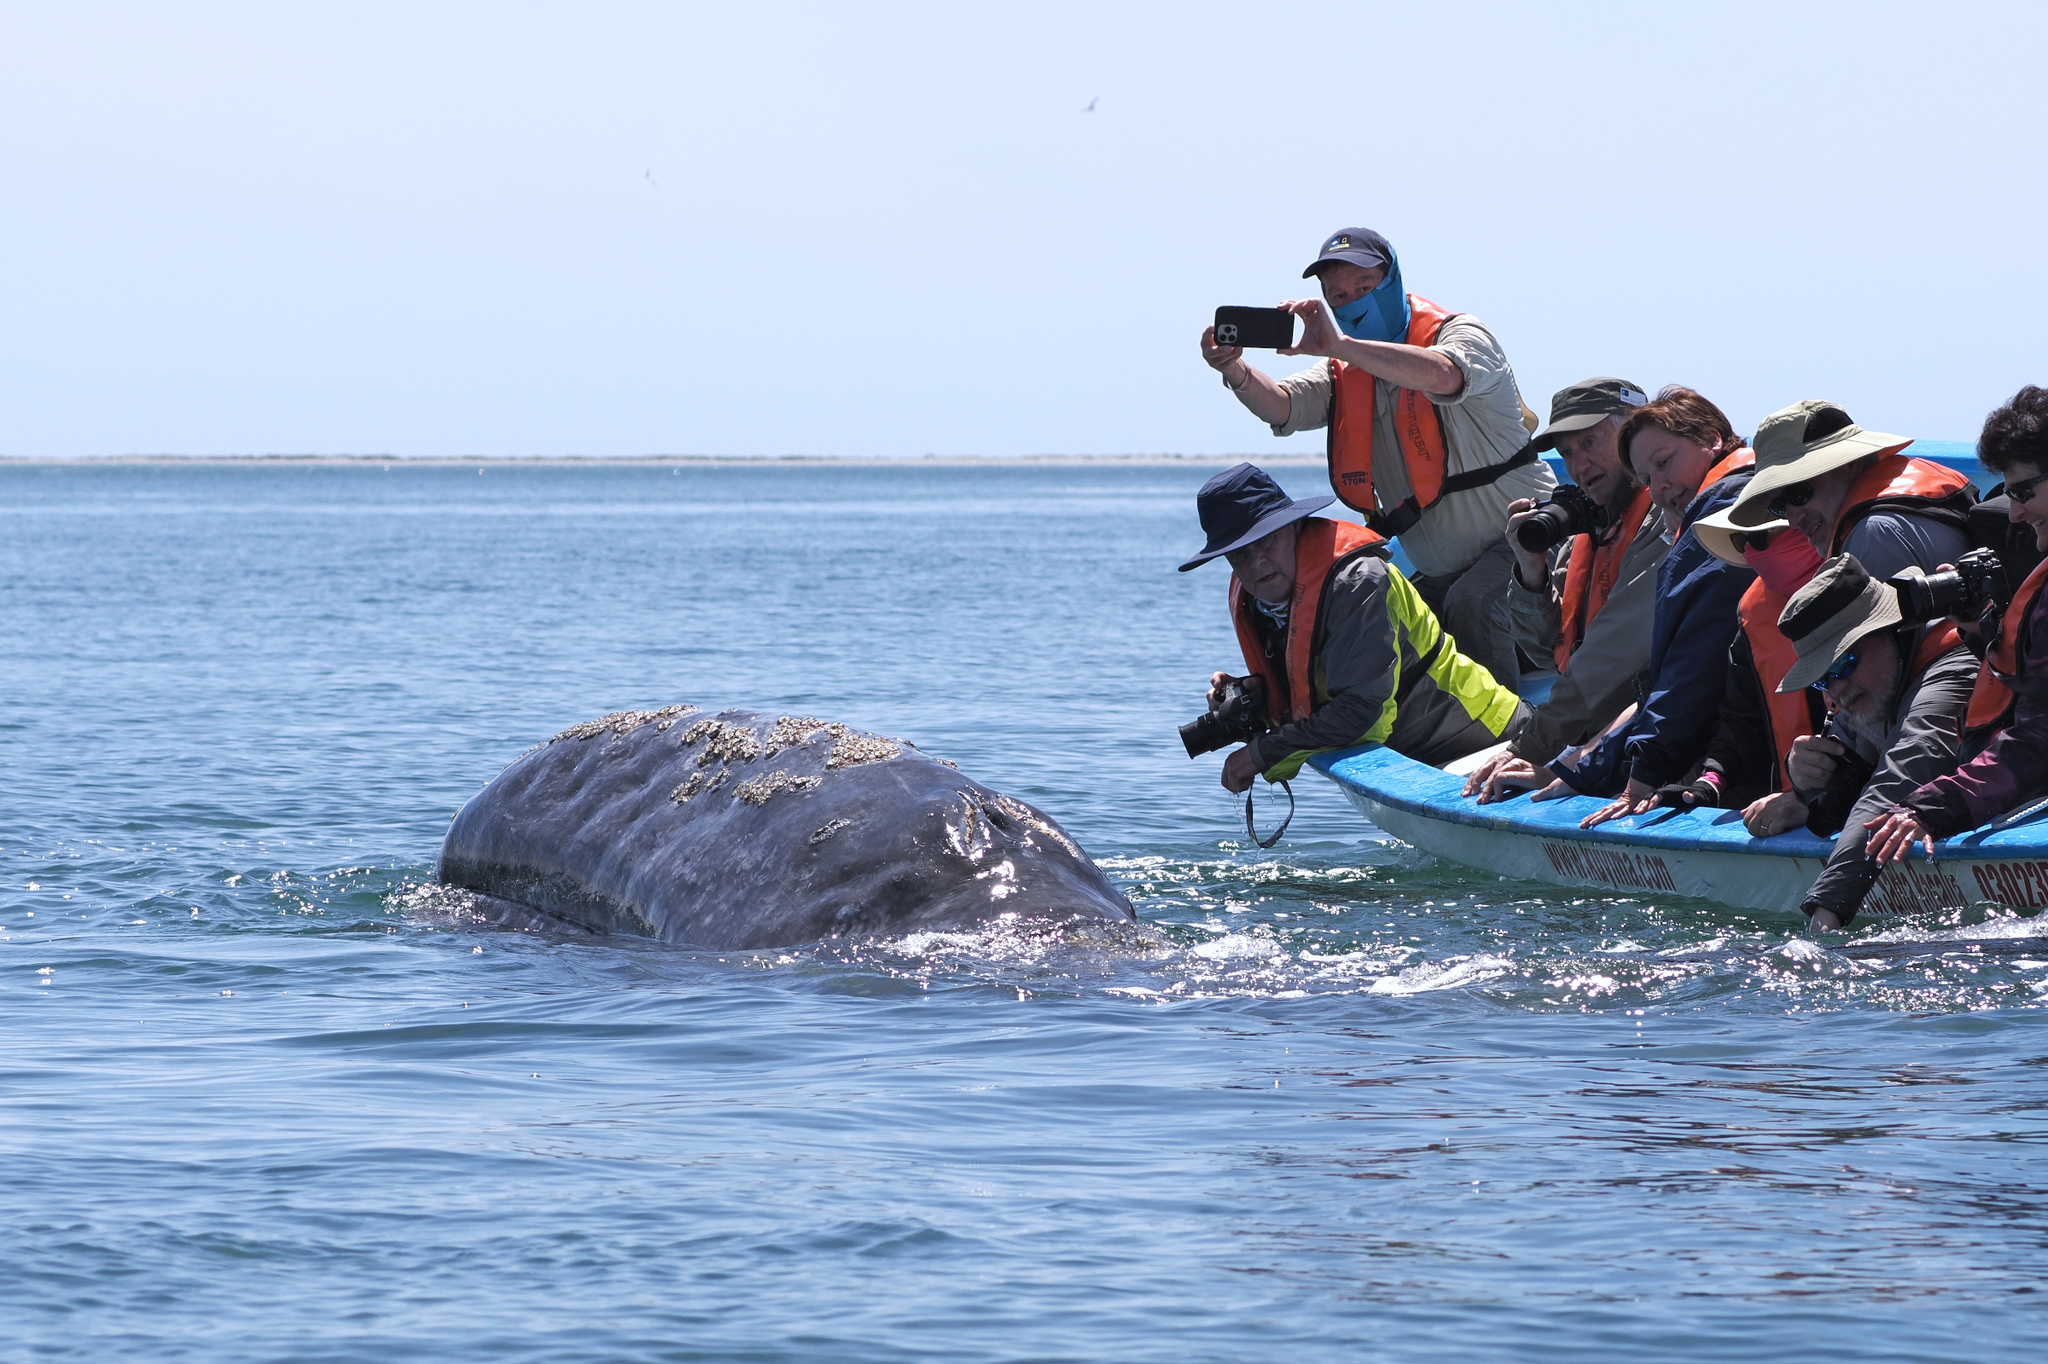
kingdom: Animalia
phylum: Chordata
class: Mammalia
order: Cetacea
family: Eschrichtiidae
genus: Eschrichtius
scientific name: Eschrichtius robustus
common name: Gray whale
